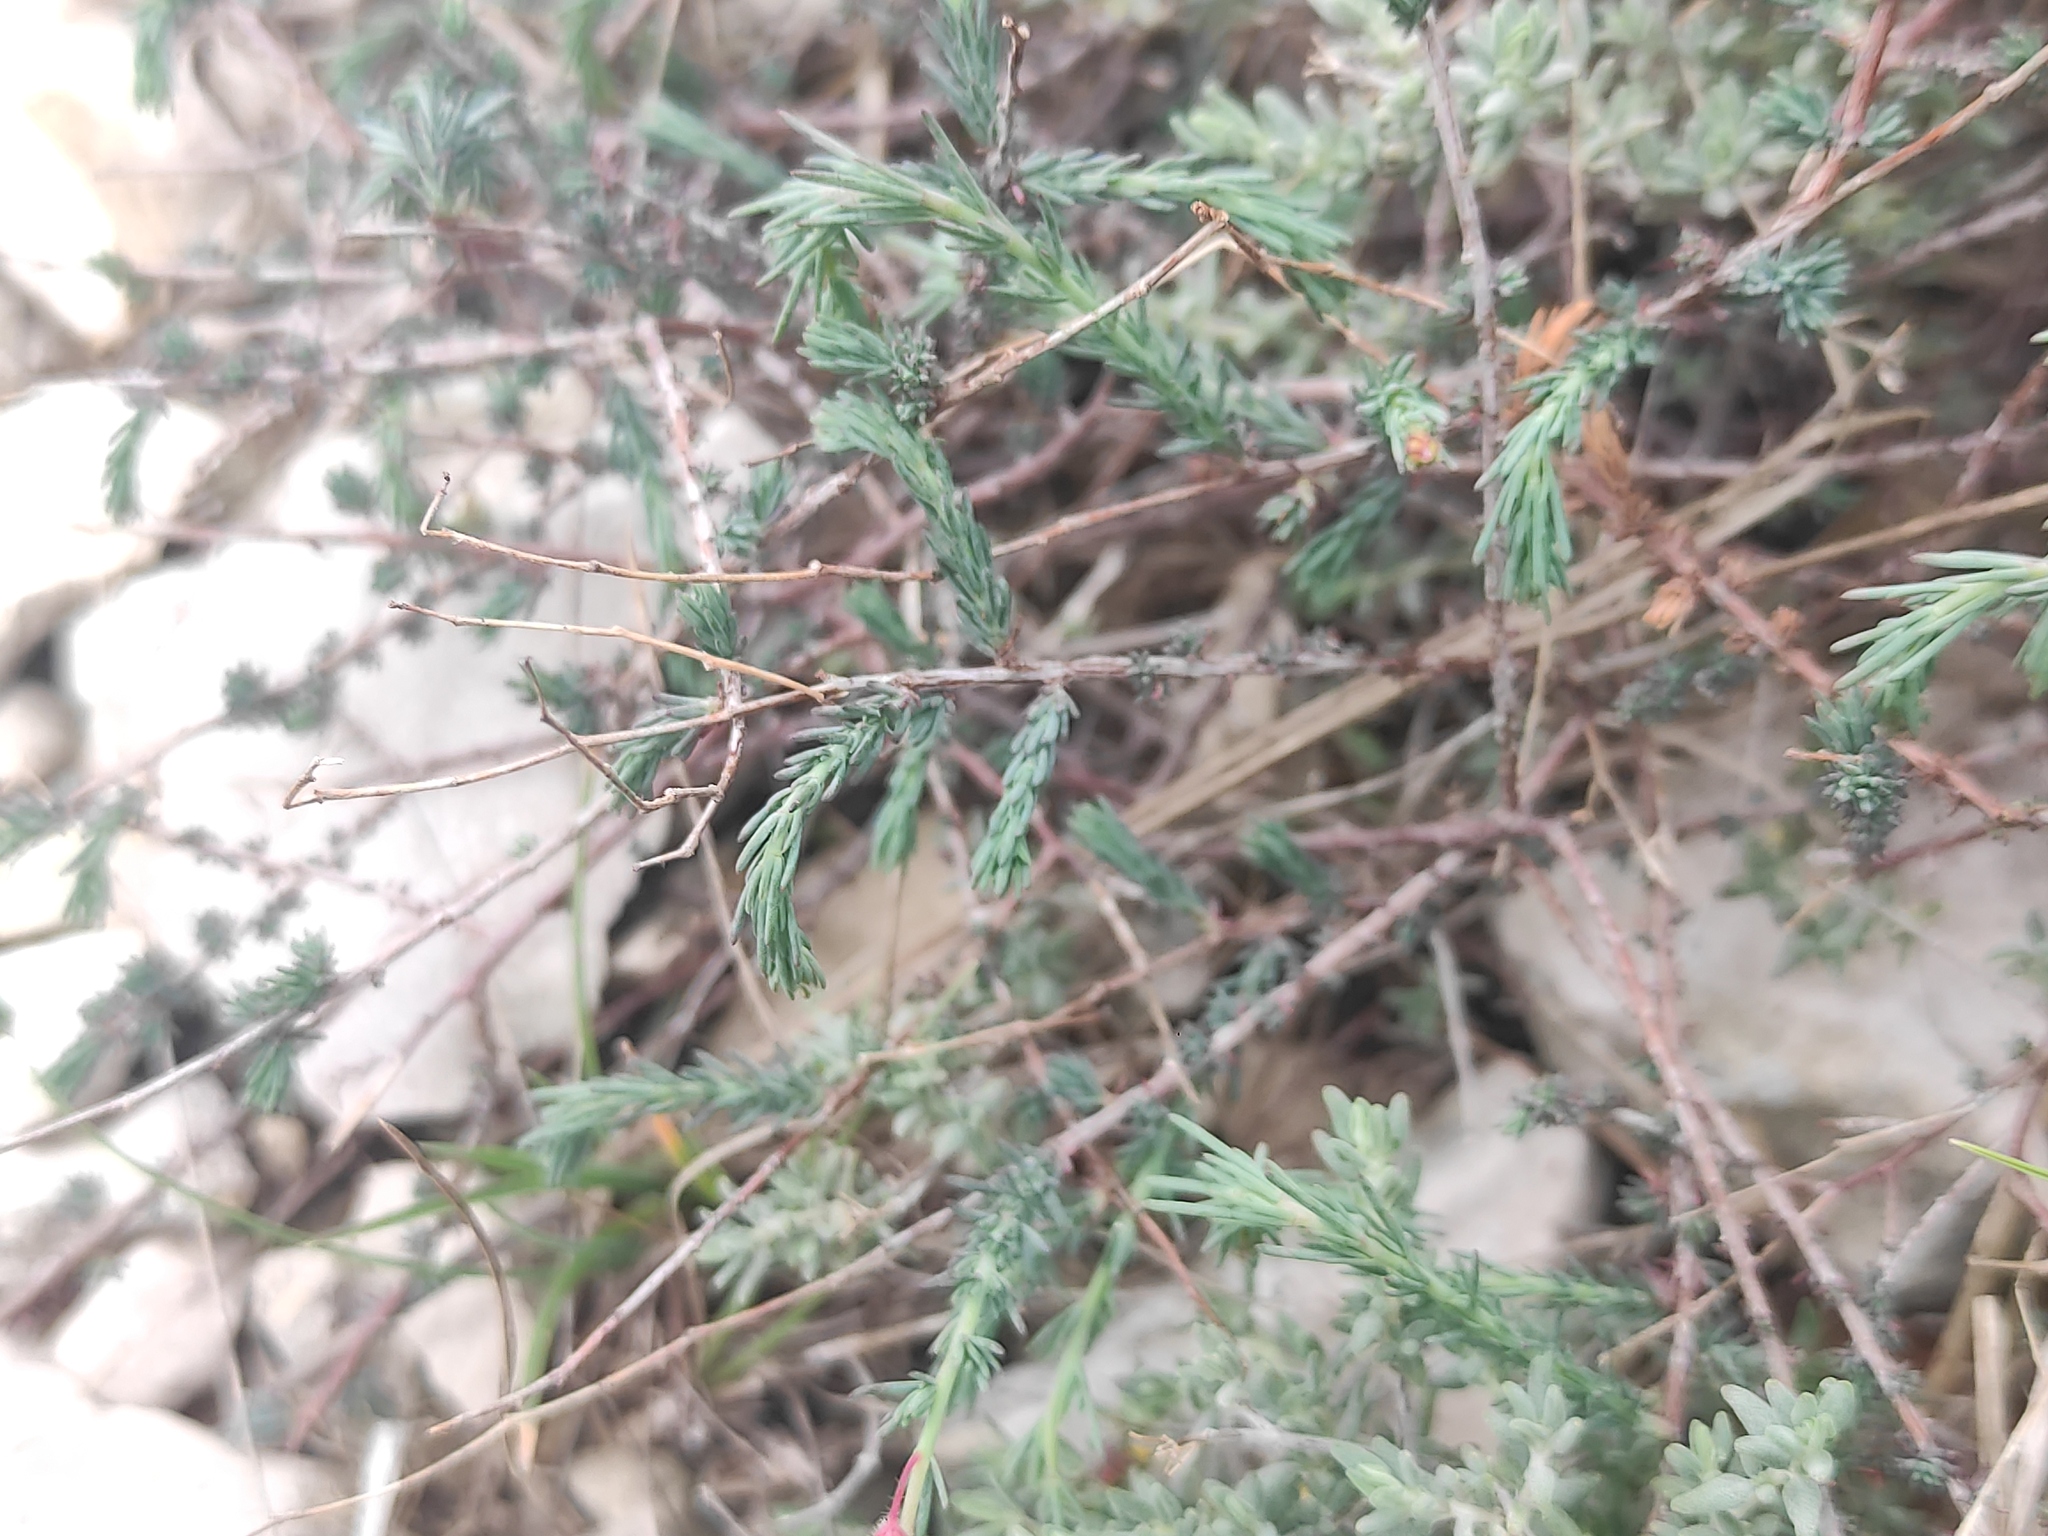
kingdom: Plantae
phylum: Tracheophyta
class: Magnoliopsida
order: Malvales
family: Cistaceae
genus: Fumana
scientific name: Fumana laevipes
